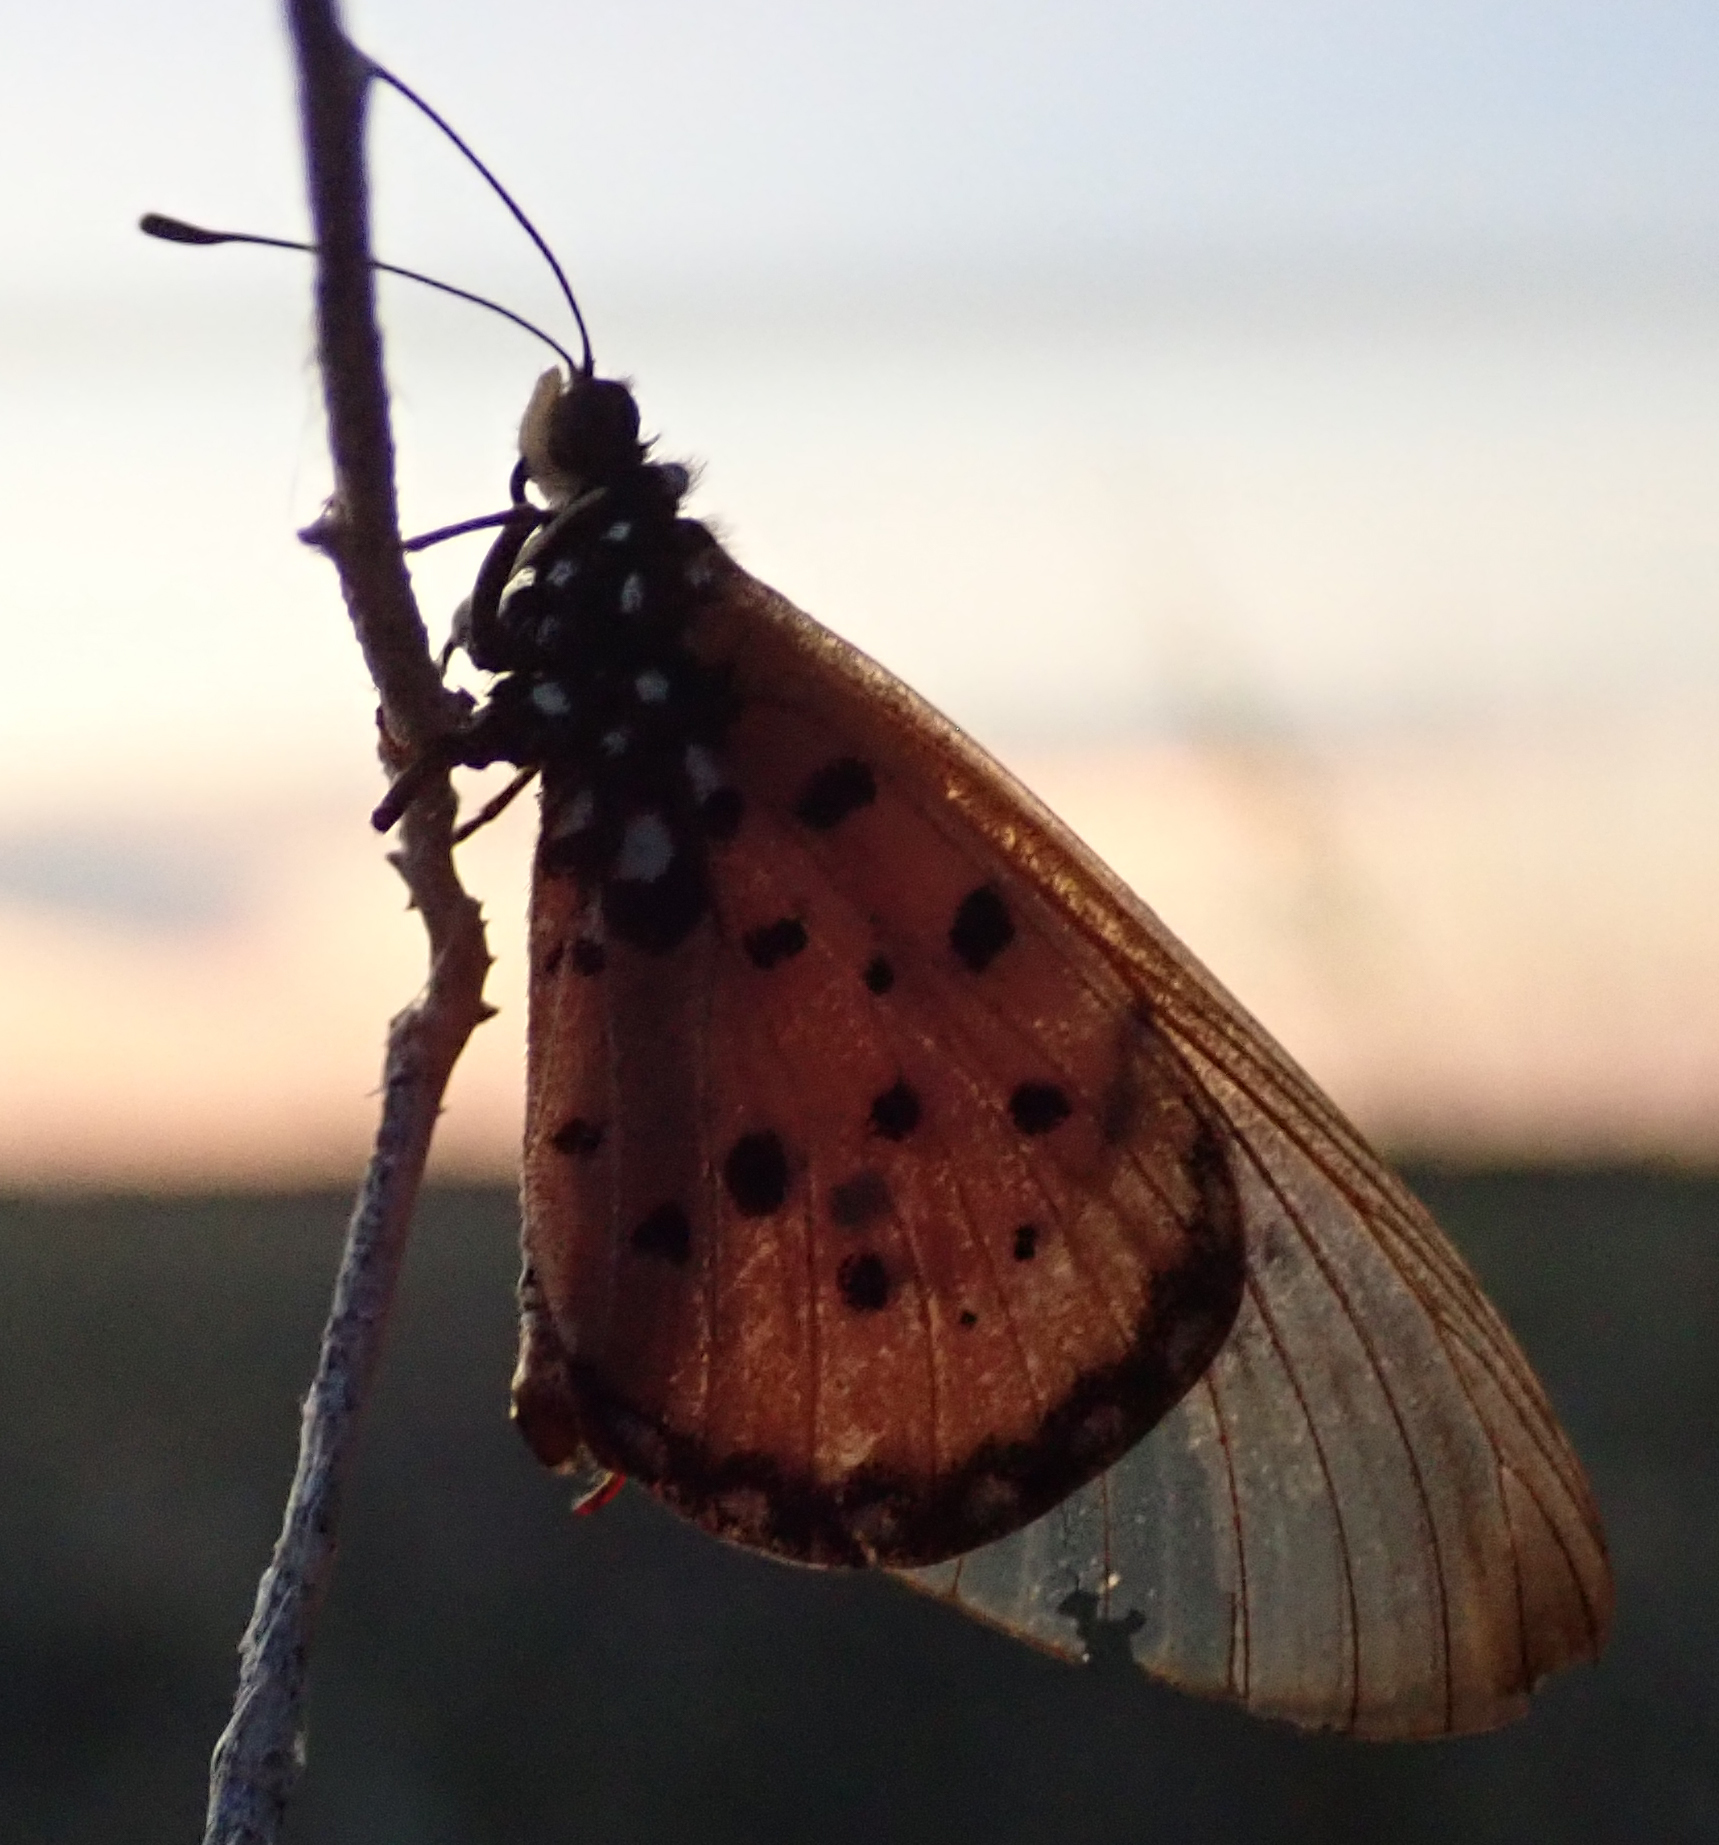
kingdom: Animalia
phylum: Arthropoda
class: Insecta
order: Lepidoptera
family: Nymphalidae
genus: Acraea
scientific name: Acraea neobule
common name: Dancing acraea
